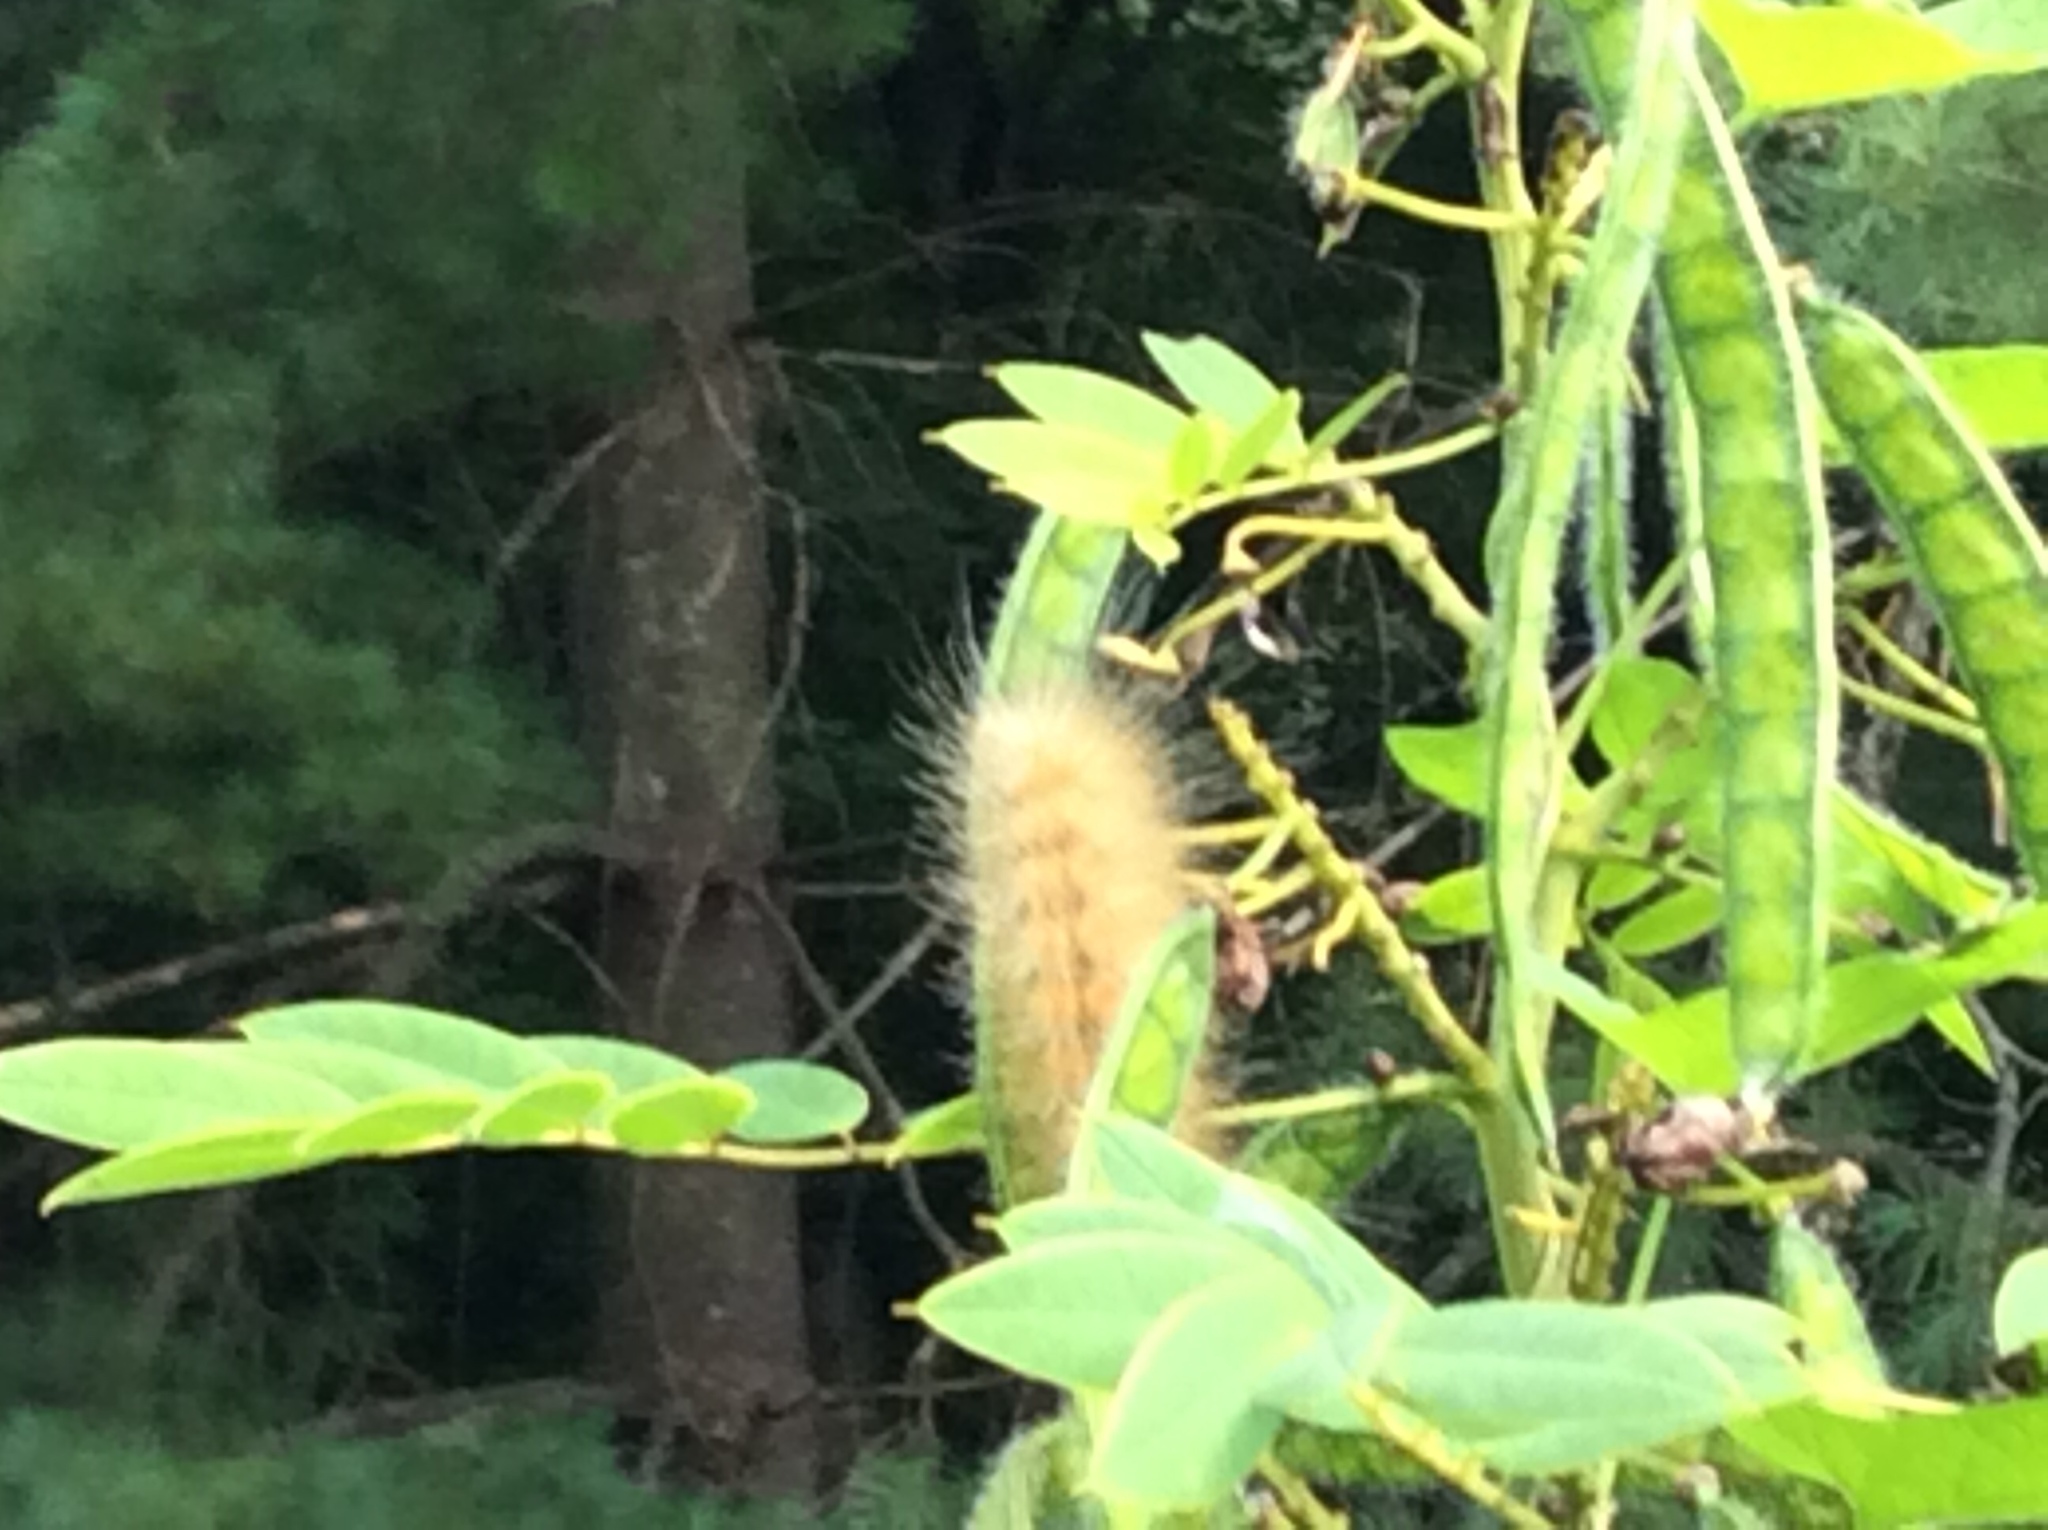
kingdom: Animalia
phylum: Arthropoda
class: Insecta
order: Lepidoptera
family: Erebidae
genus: Spilosoma
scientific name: Spilosoma virginica
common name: Virginia tiger moth
